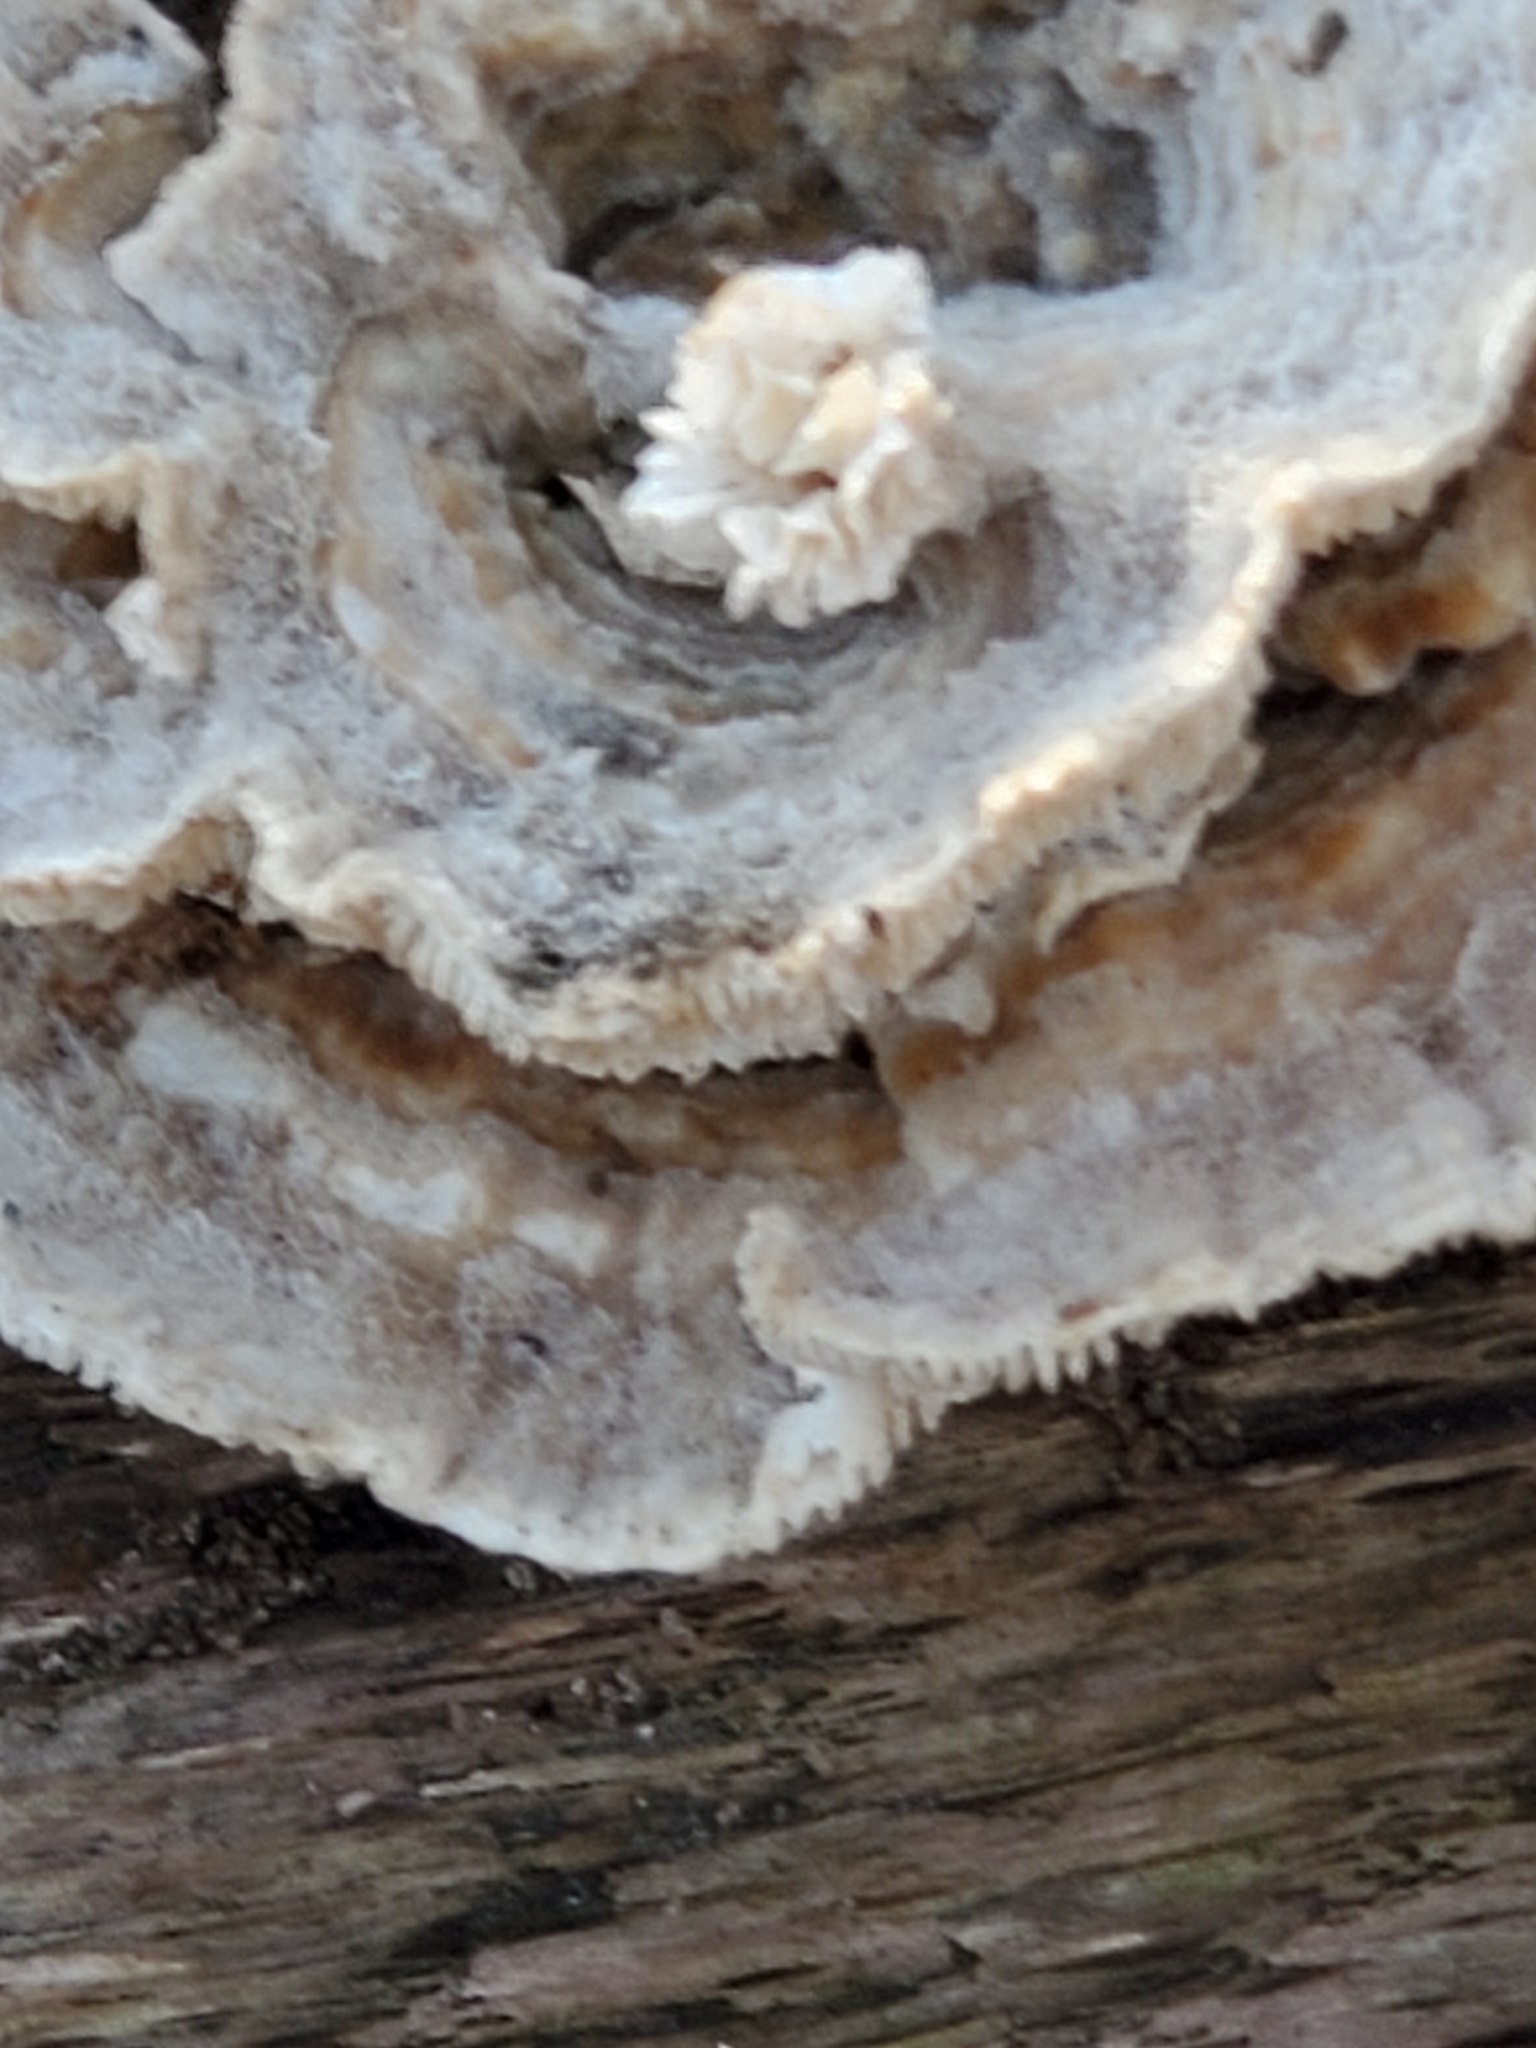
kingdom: Fungi
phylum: Basidiomycota
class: Agaricomycetes
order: Polyporales
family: Polyporaceae
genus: Lenzites
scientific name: Lenzites betulinus
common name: Birch mazegill
